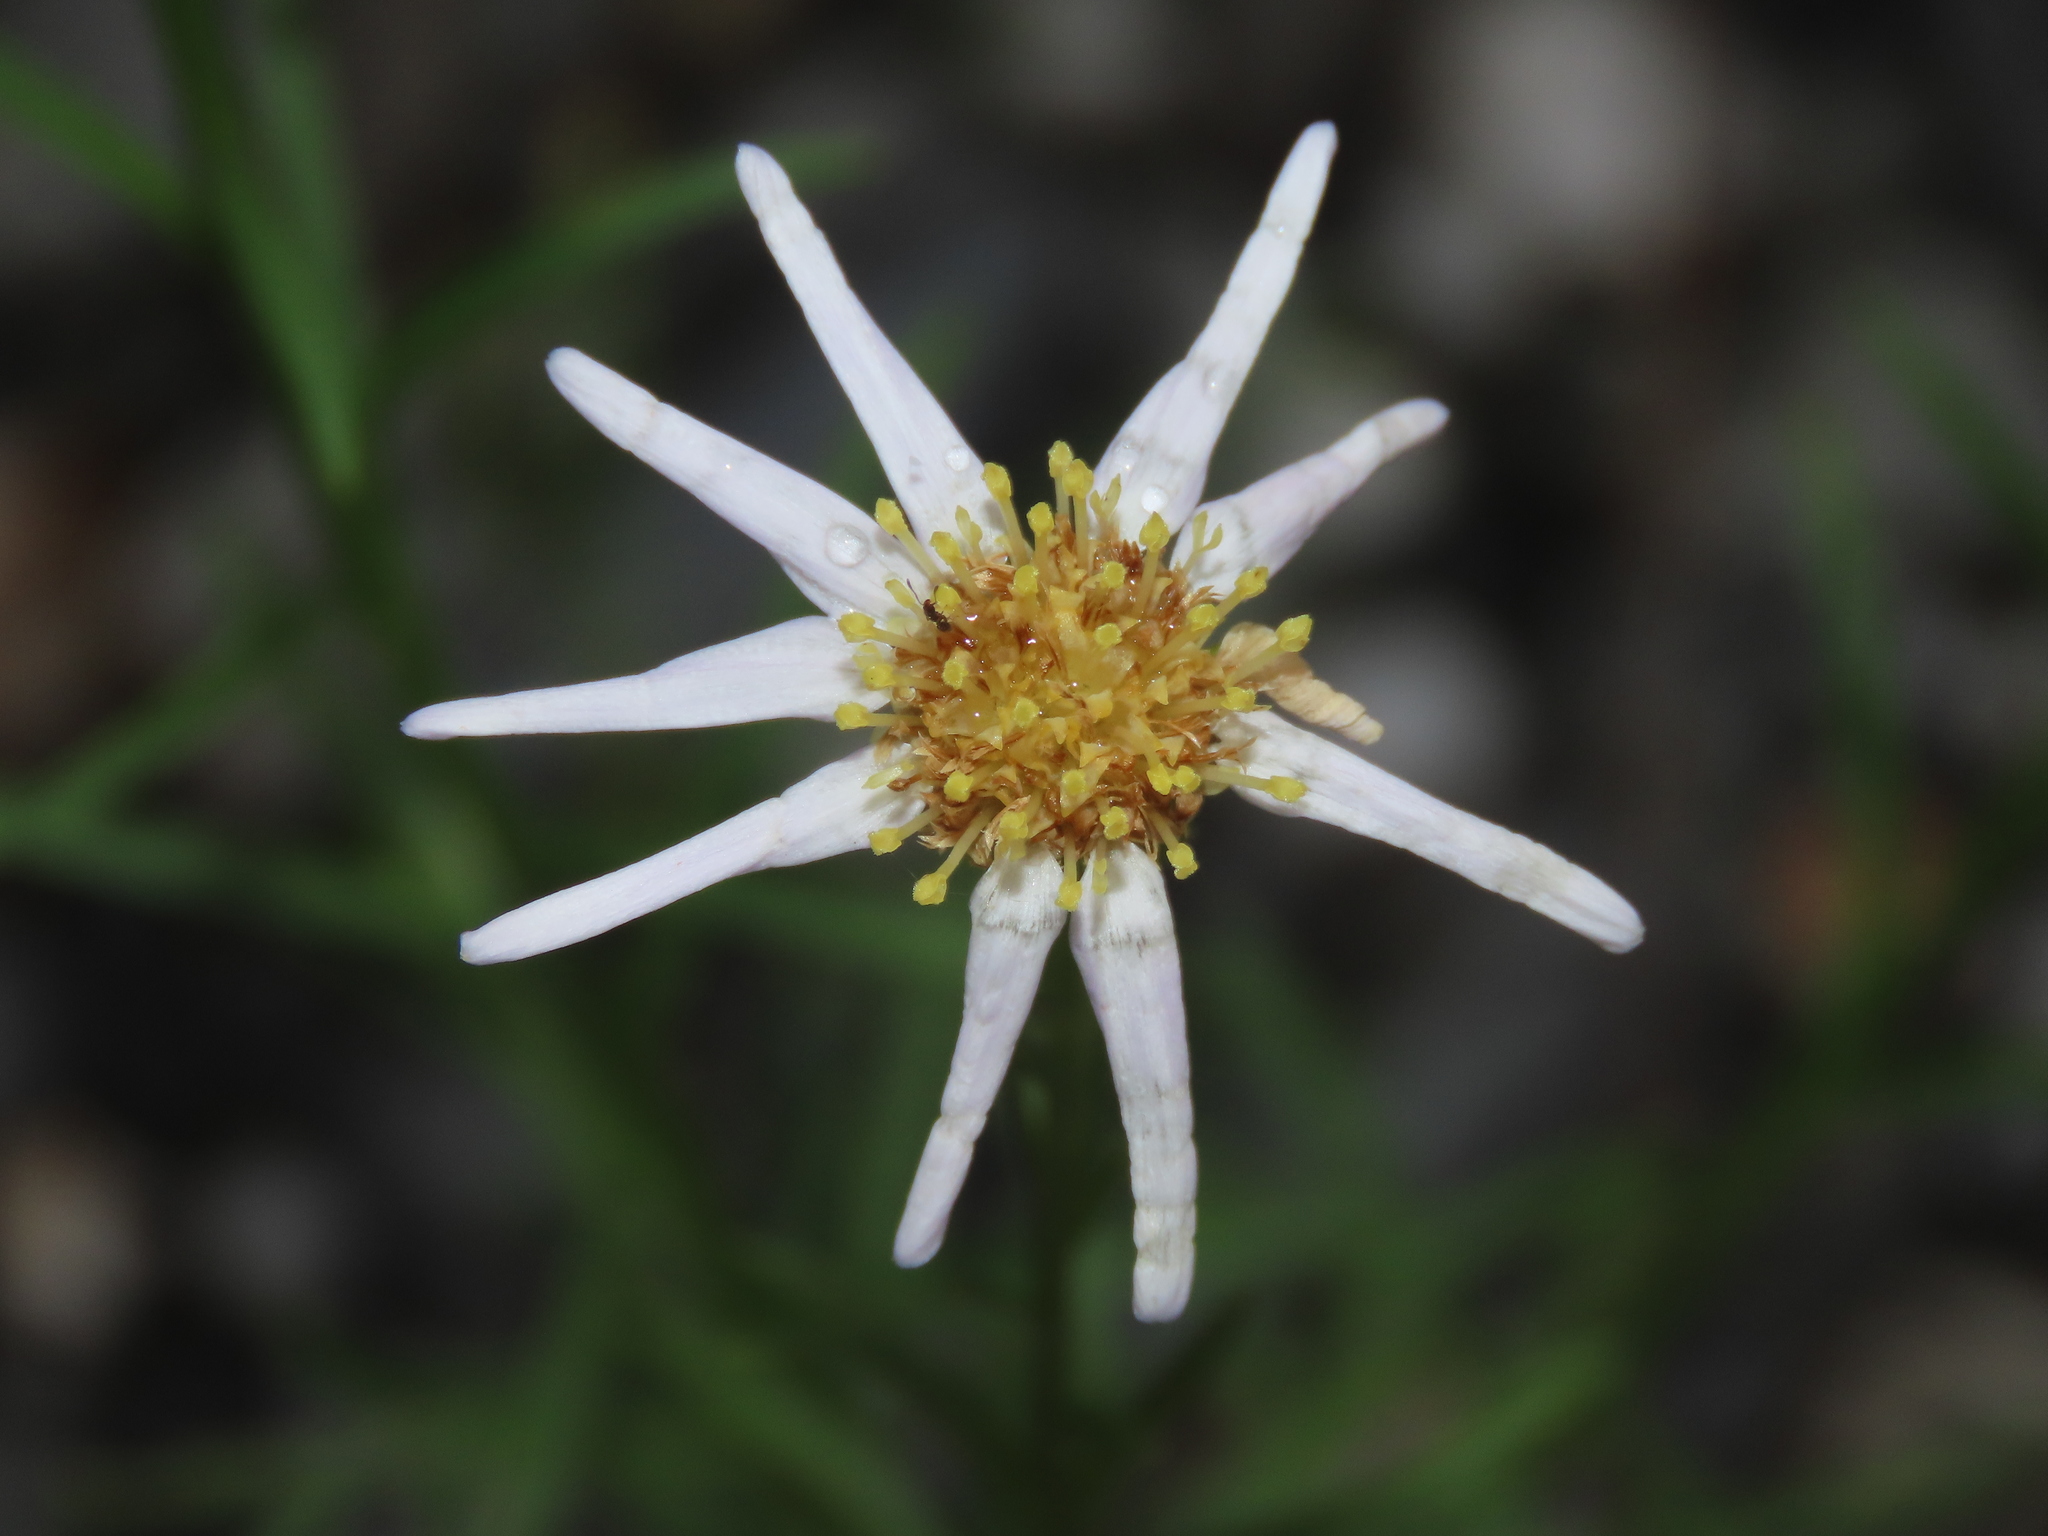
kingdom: Plantae
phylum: Tracheophyta
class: Magnoliopsida
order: Asterales
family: Asteraceae
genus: Heteropappus
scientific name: Heteropappus altaicus
